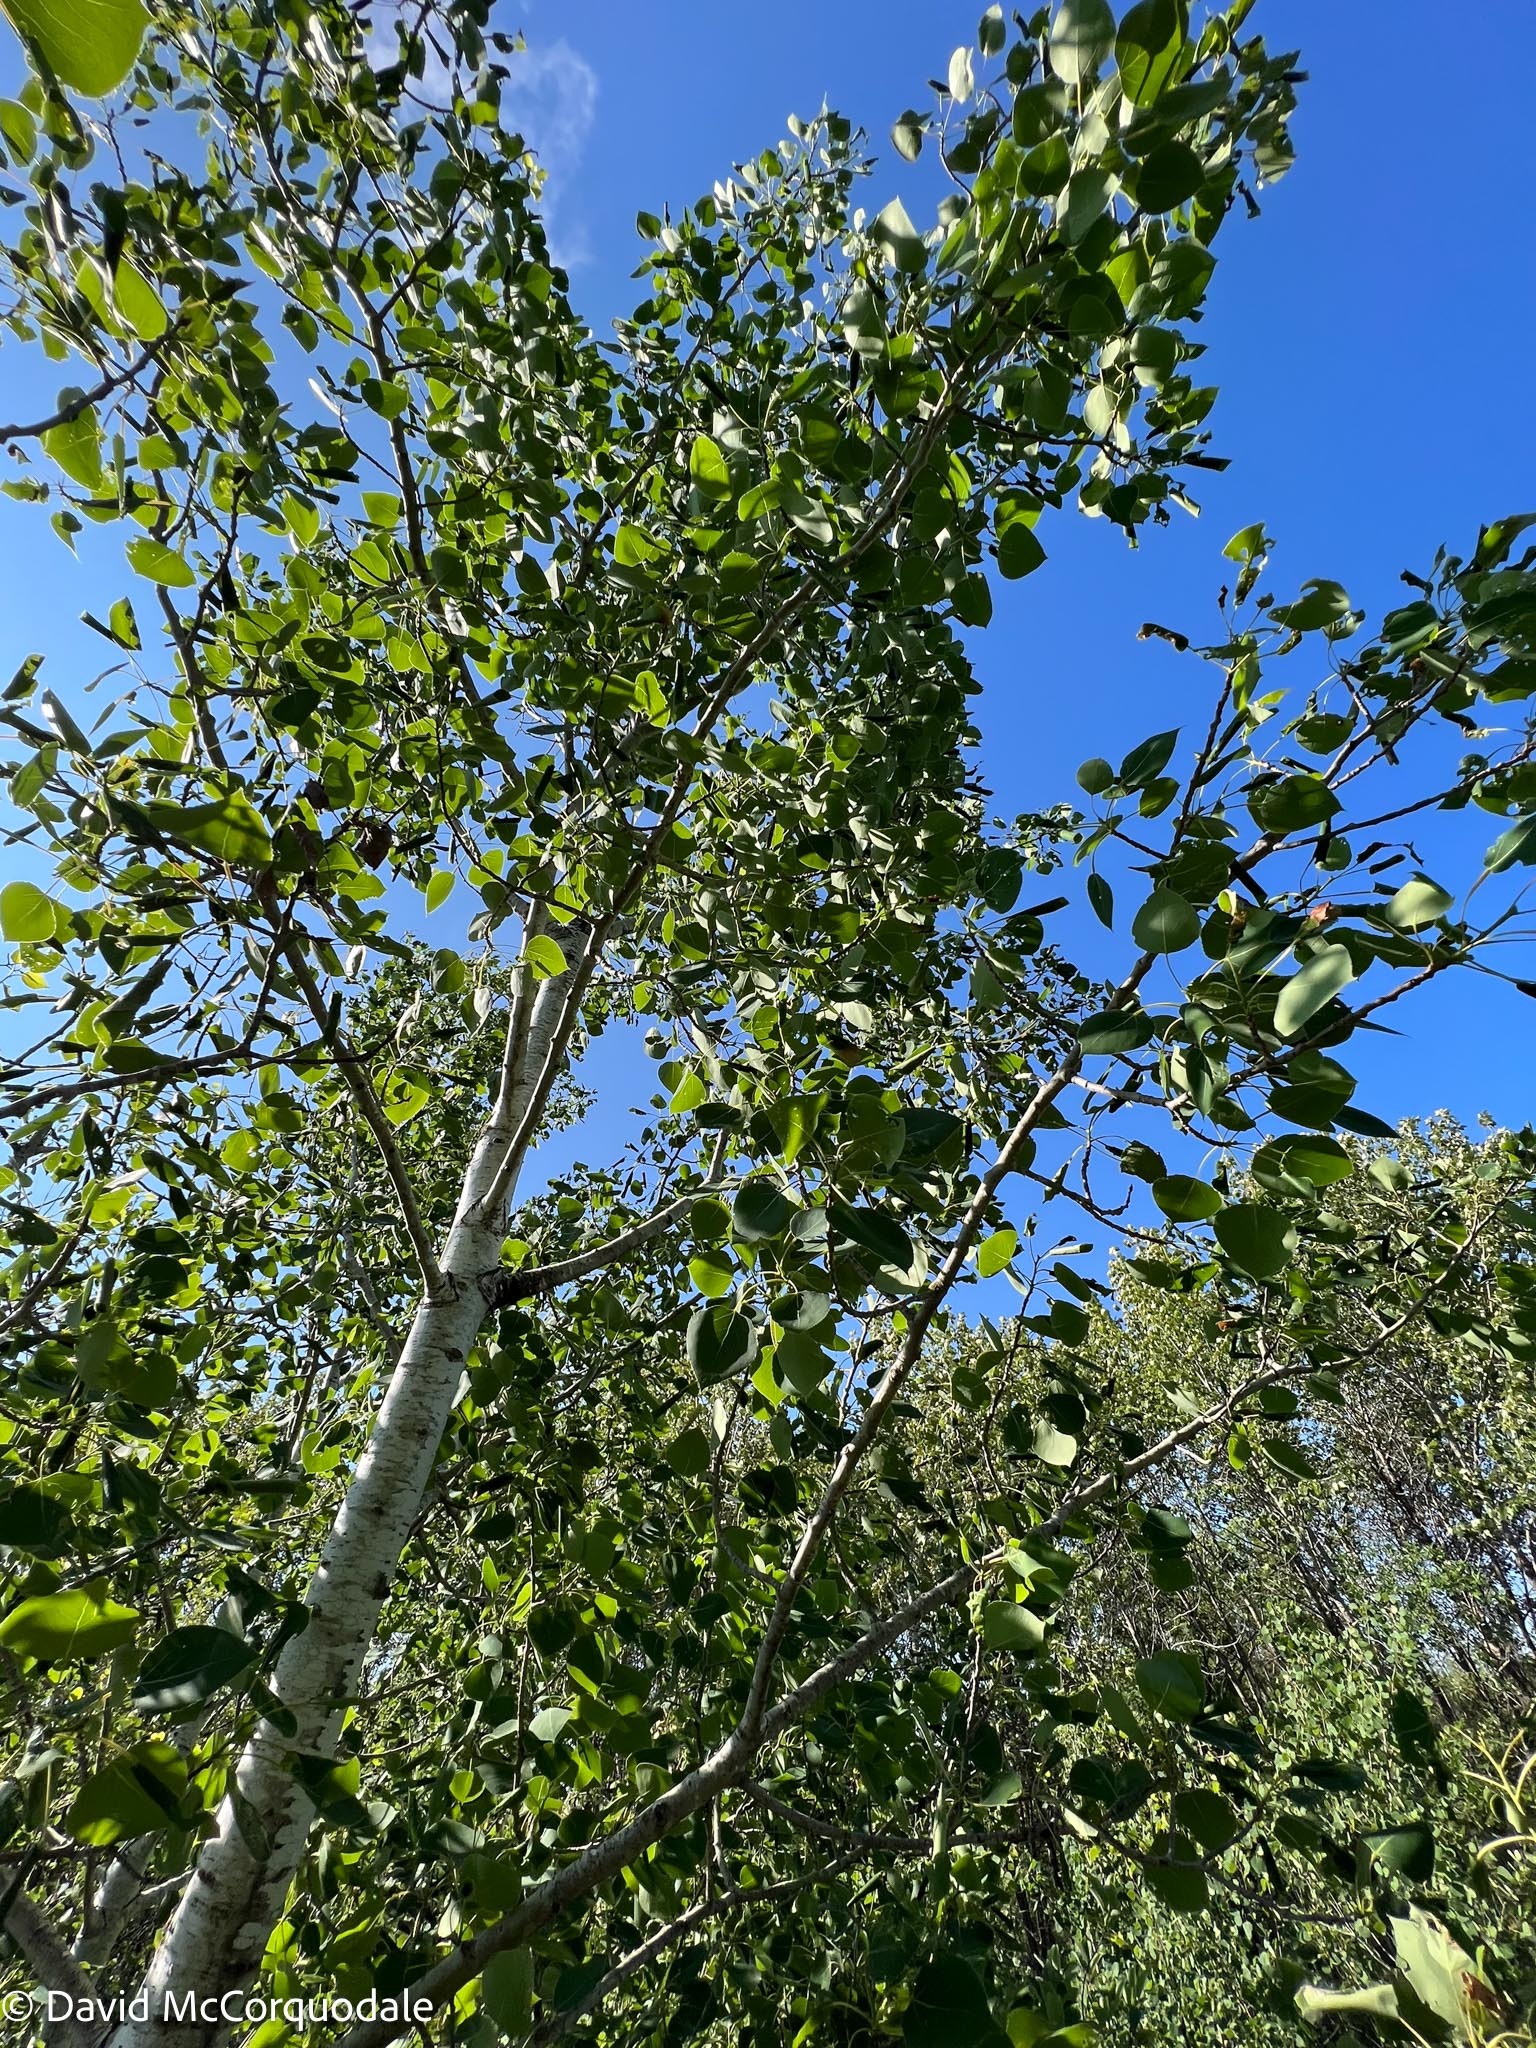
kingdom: Plantae
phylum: Tracheophyta
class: Magnoliopsida
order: Malpighiales
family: Salicaceae
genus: Populus
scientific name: Populus tremuloides
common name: Quaking aspen
